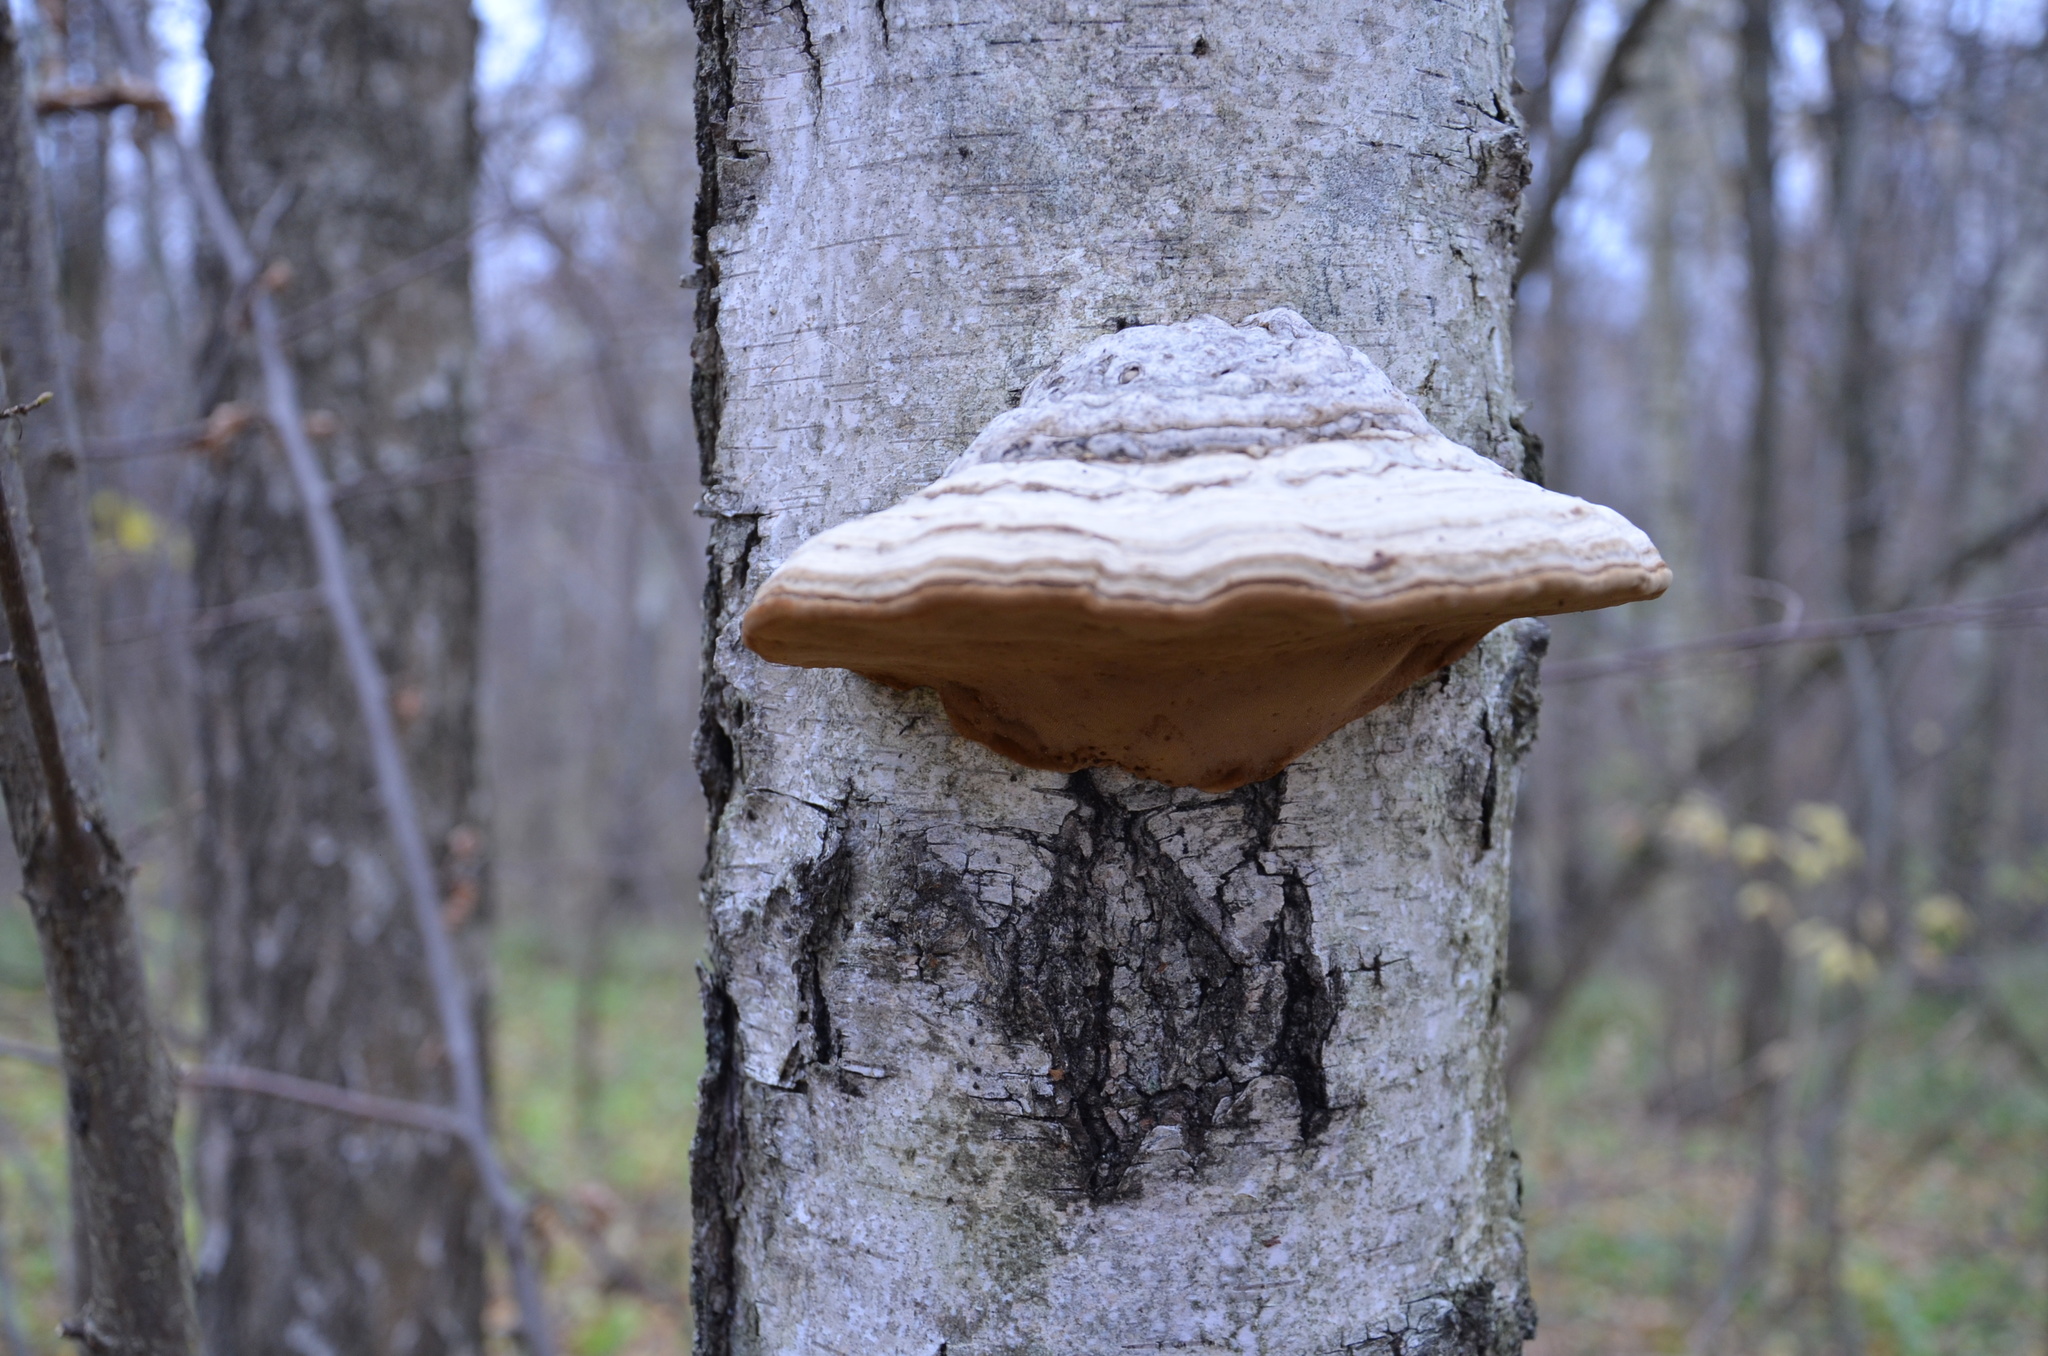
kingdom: Fungi
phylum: Basidiomycota
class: Agaricomycetes
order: Polyporales
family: Polyporaceae
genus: Fomes
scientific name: Fomes fomentarius
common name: Hoof fungus
